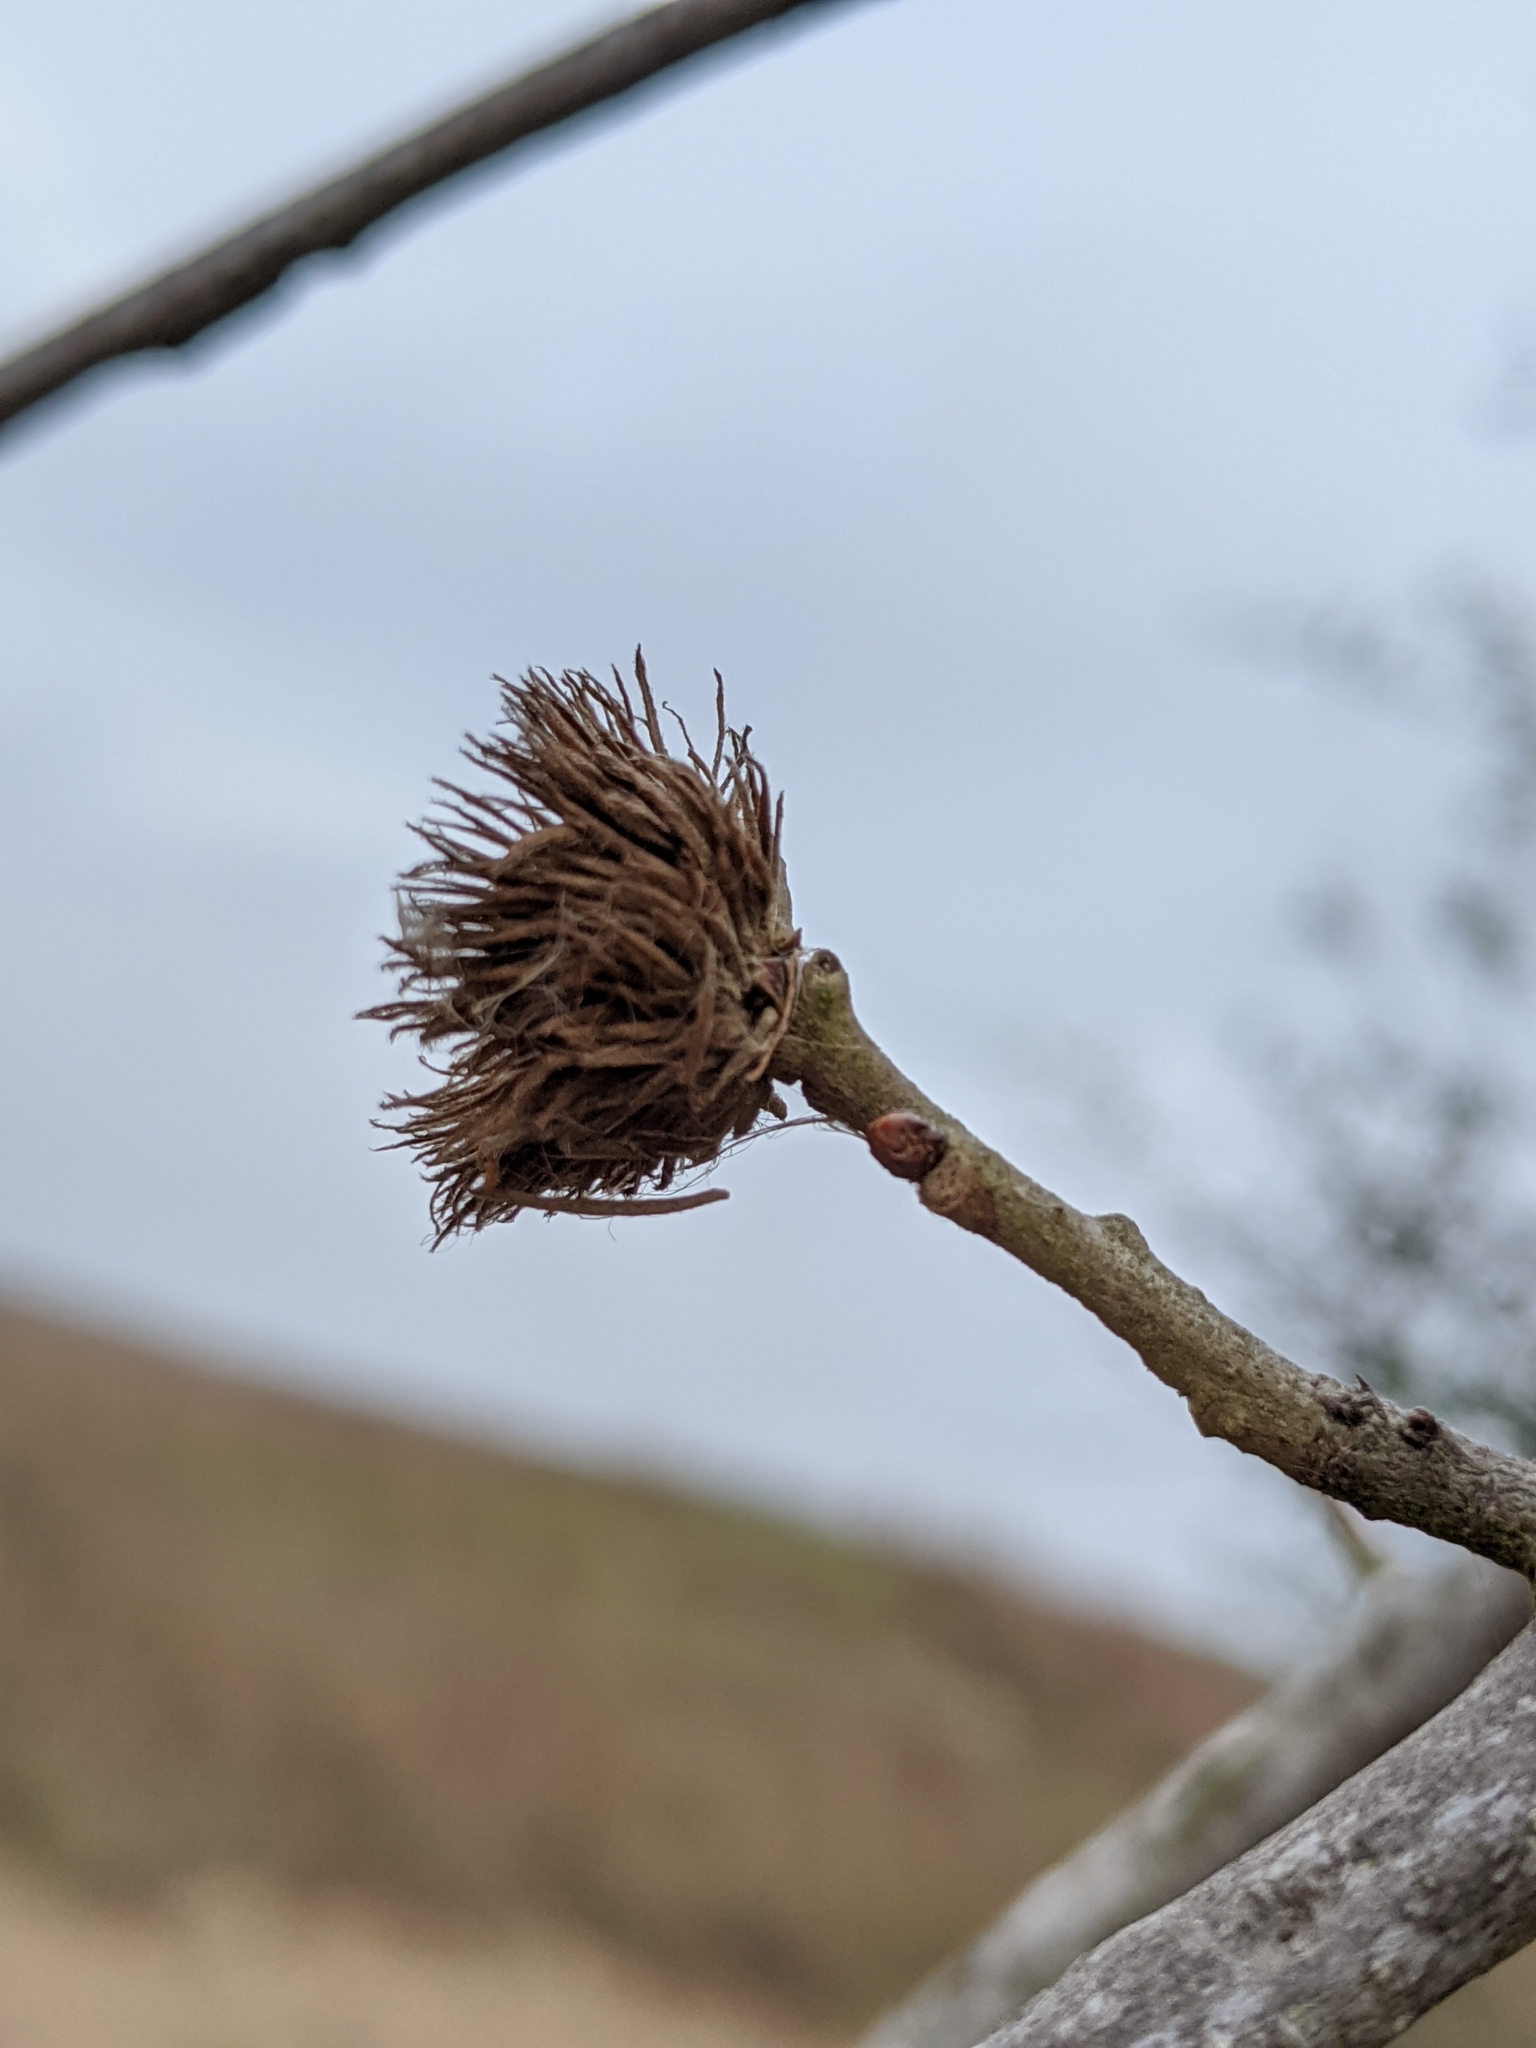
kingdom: Animalia
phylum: Arthropoda
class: Insecta
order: Hymenoptera
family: Cynipidae
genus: Andricus
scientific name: Andricus quercusfoliatus
